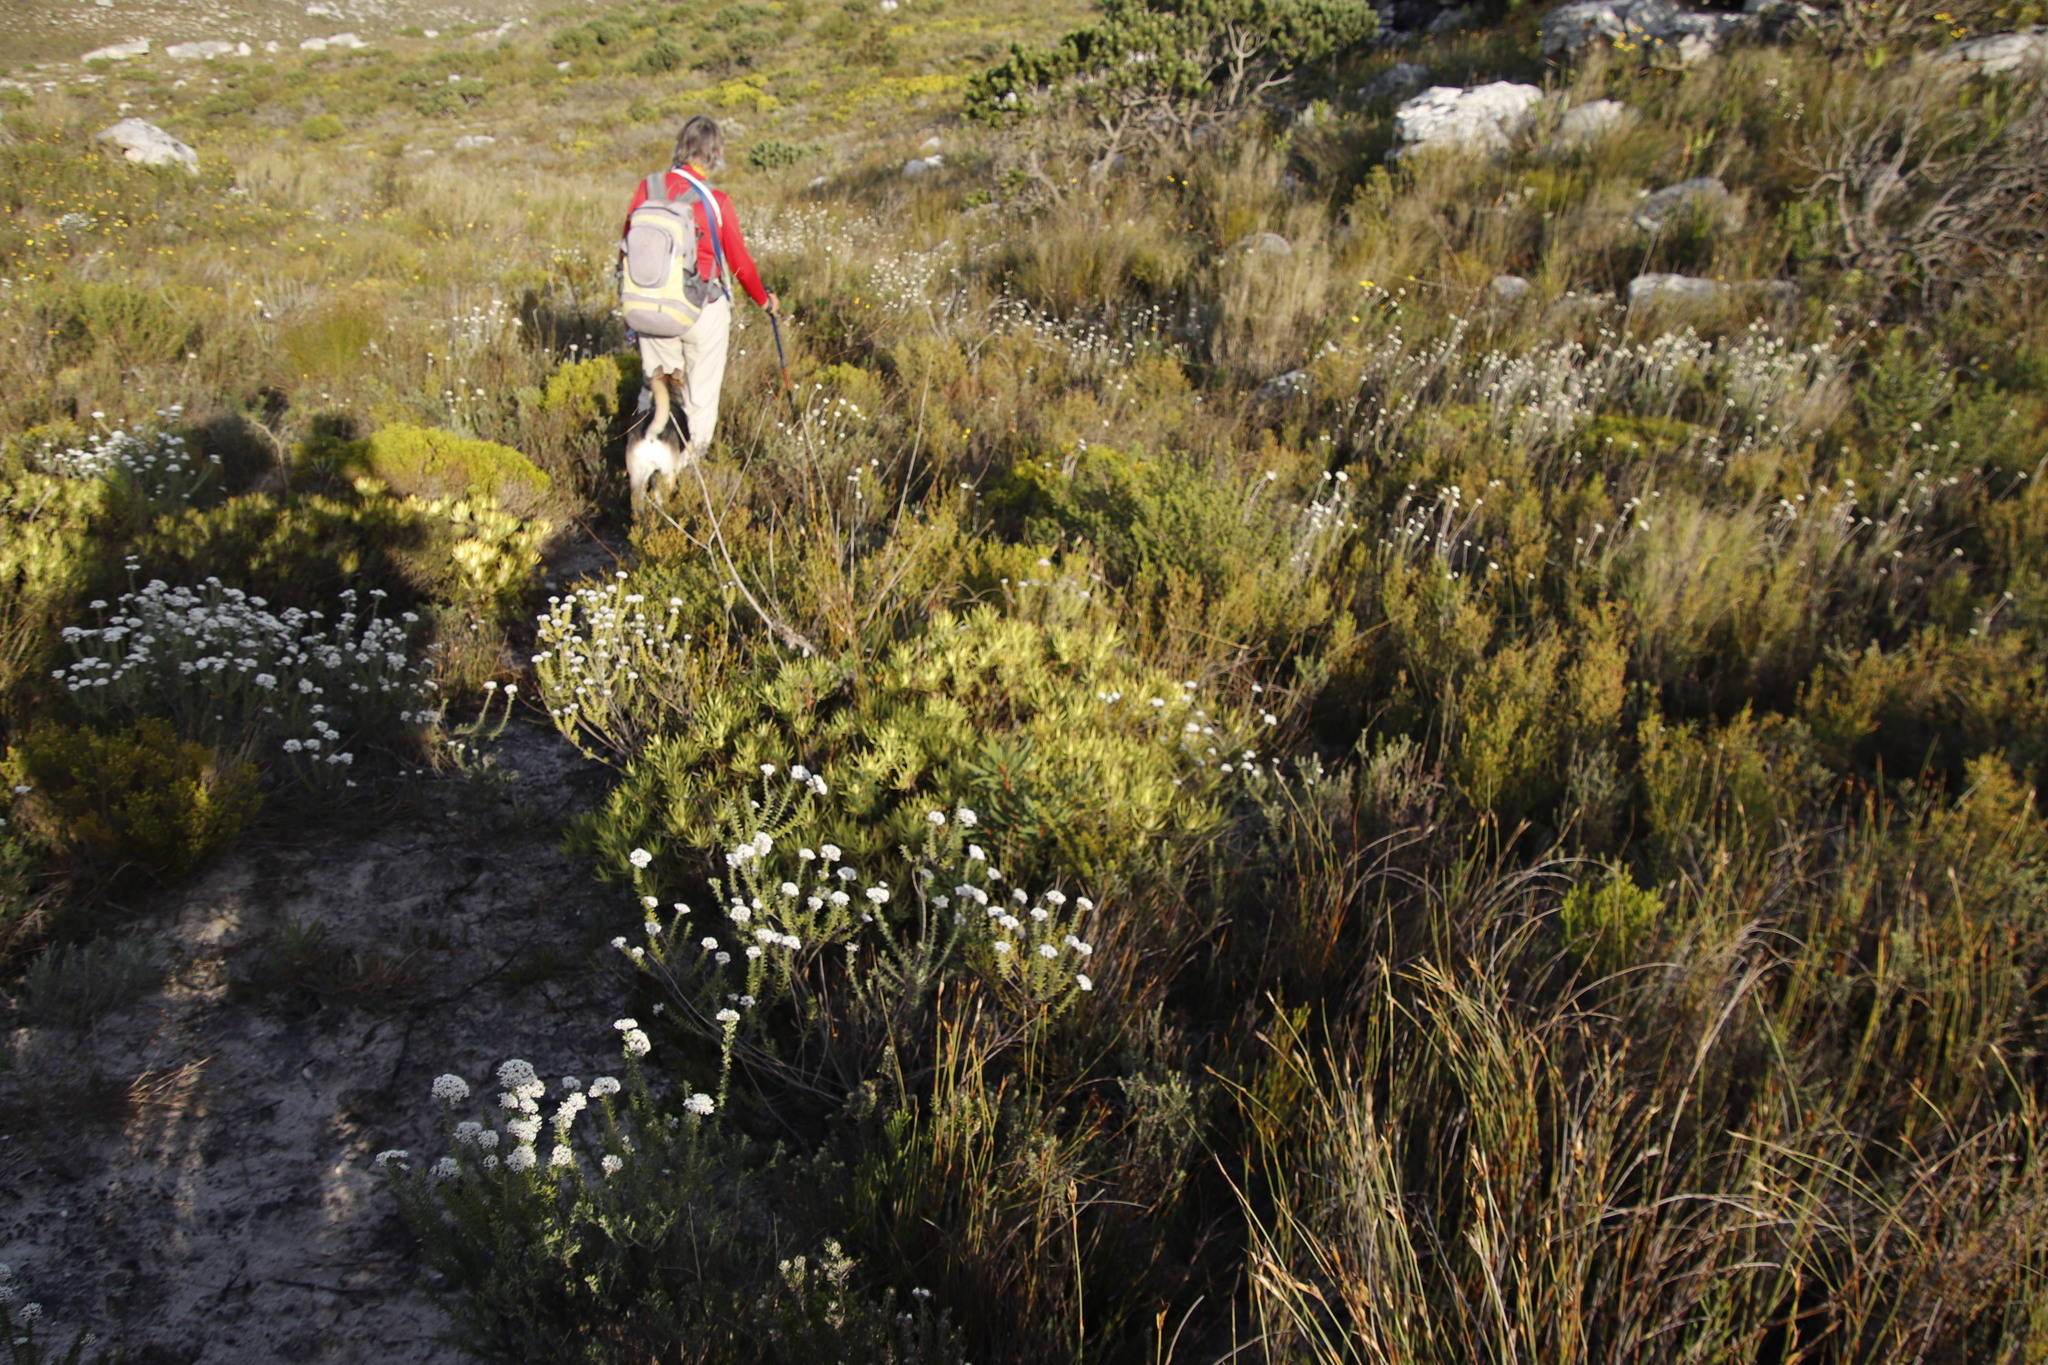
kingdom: Plantae
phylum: Tracheophyta
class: Magnoliopsida
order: Proteales
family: Proteaceae
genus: Leucadendron
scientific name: Leucadendron salignum
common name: Common sunshine conebush
